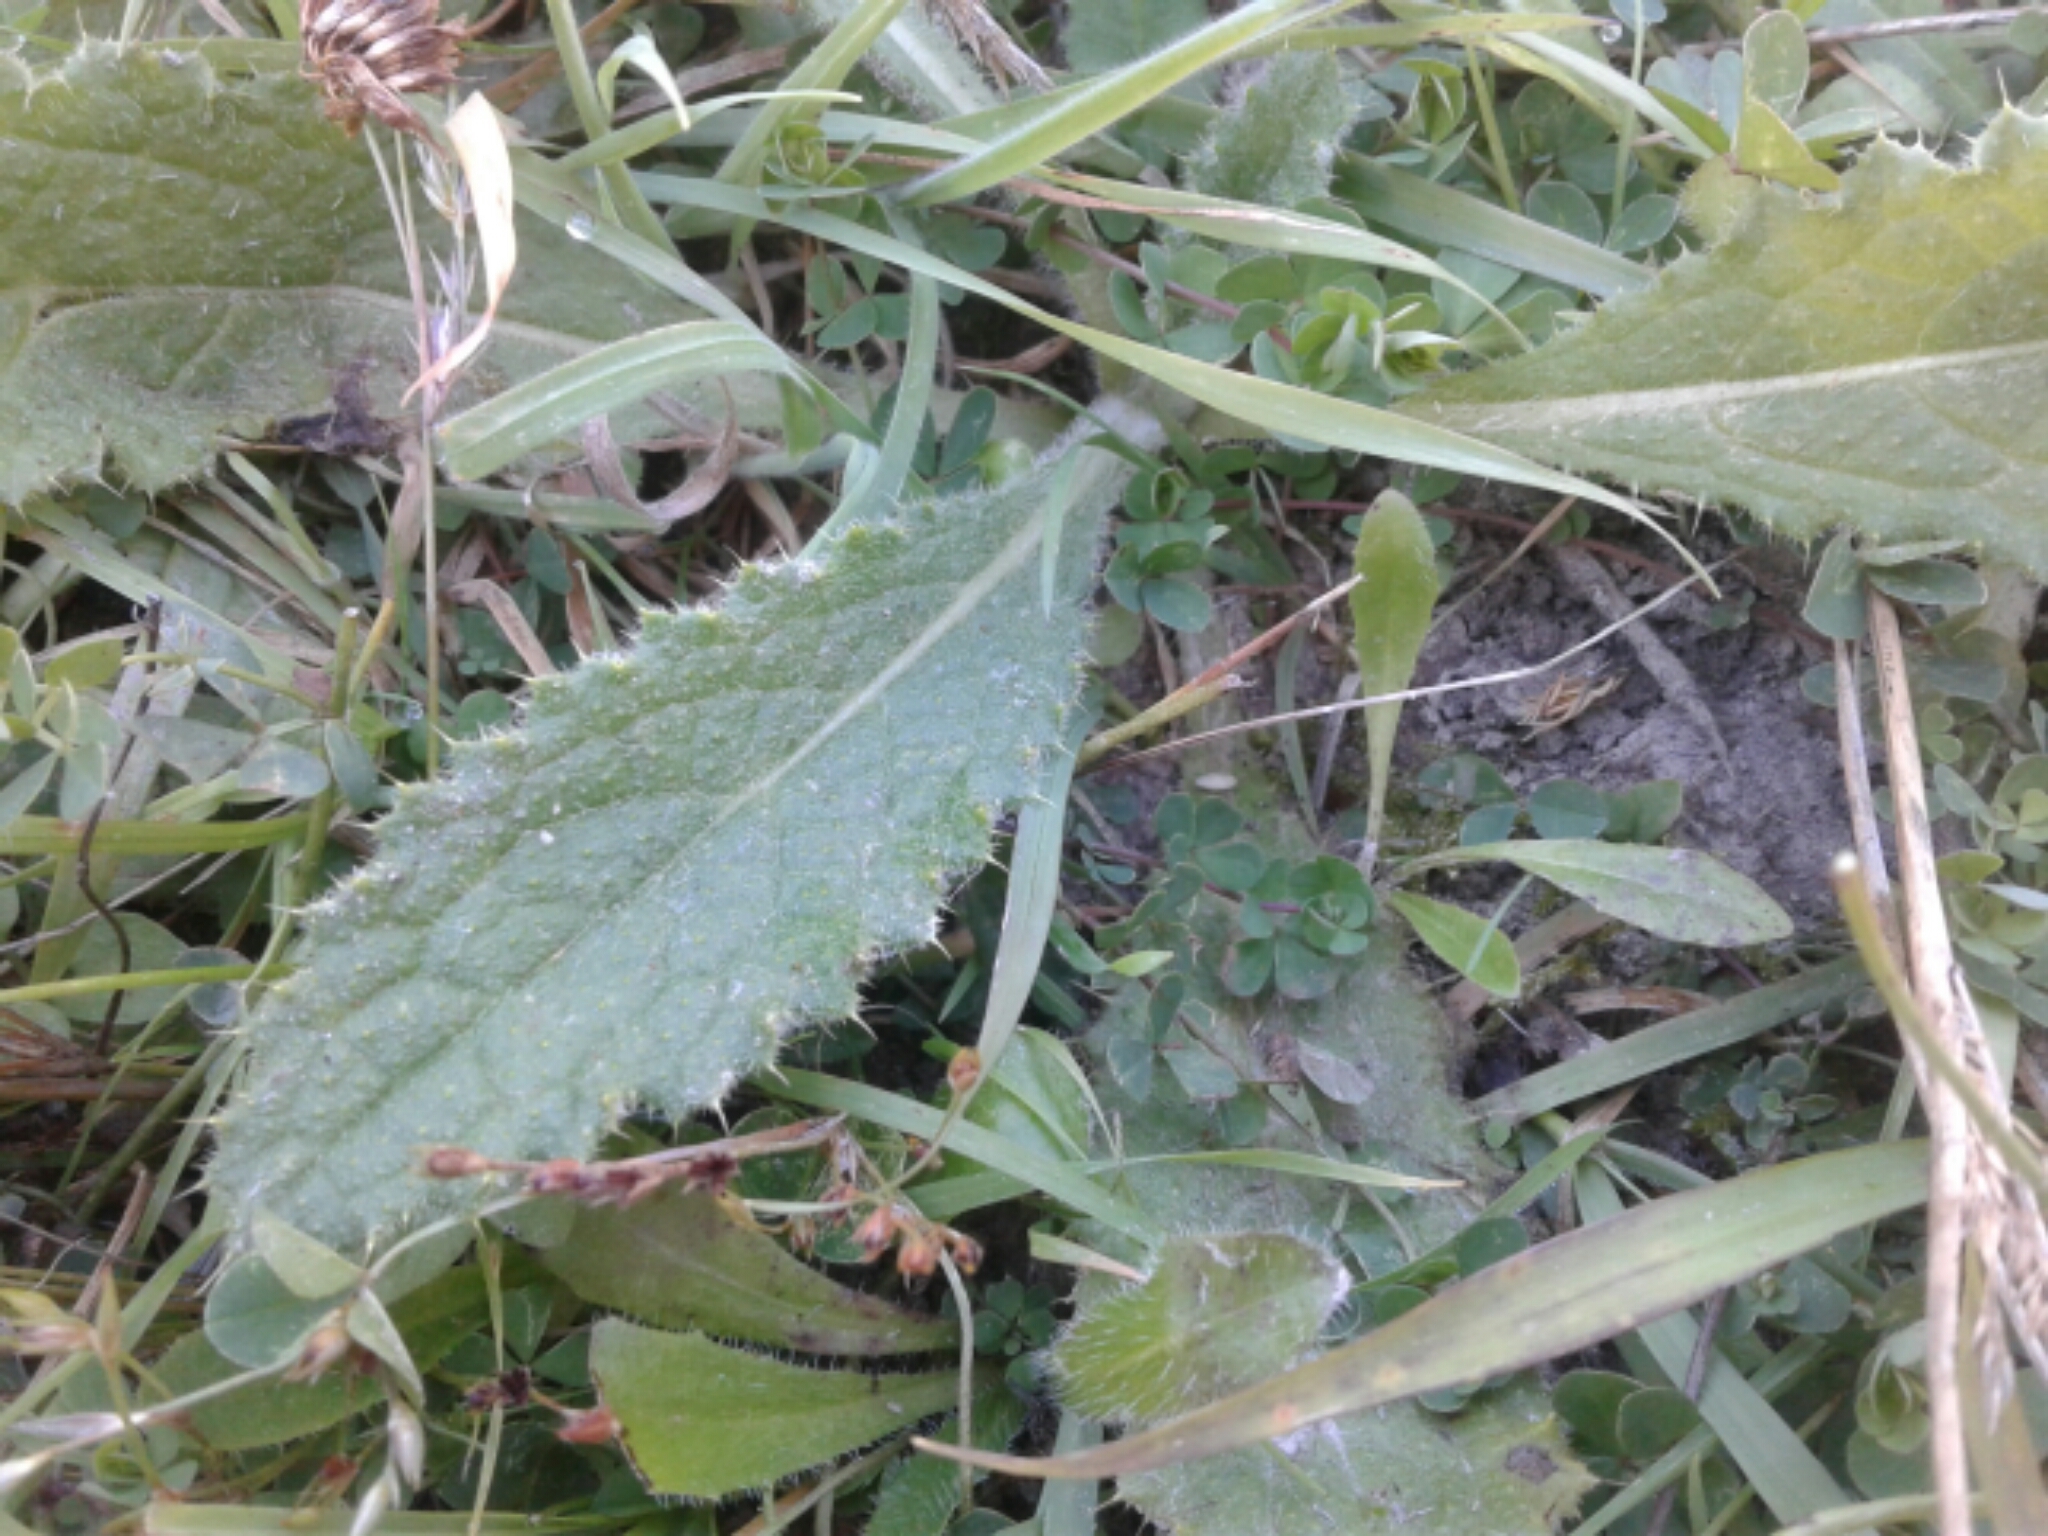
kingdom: Plantae
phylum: Tracheophyta
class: Magnoliopsida
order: Asterales
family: Asteraceae
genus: Cirsium
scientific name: Cirsium vulgare
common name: Bull thistle
